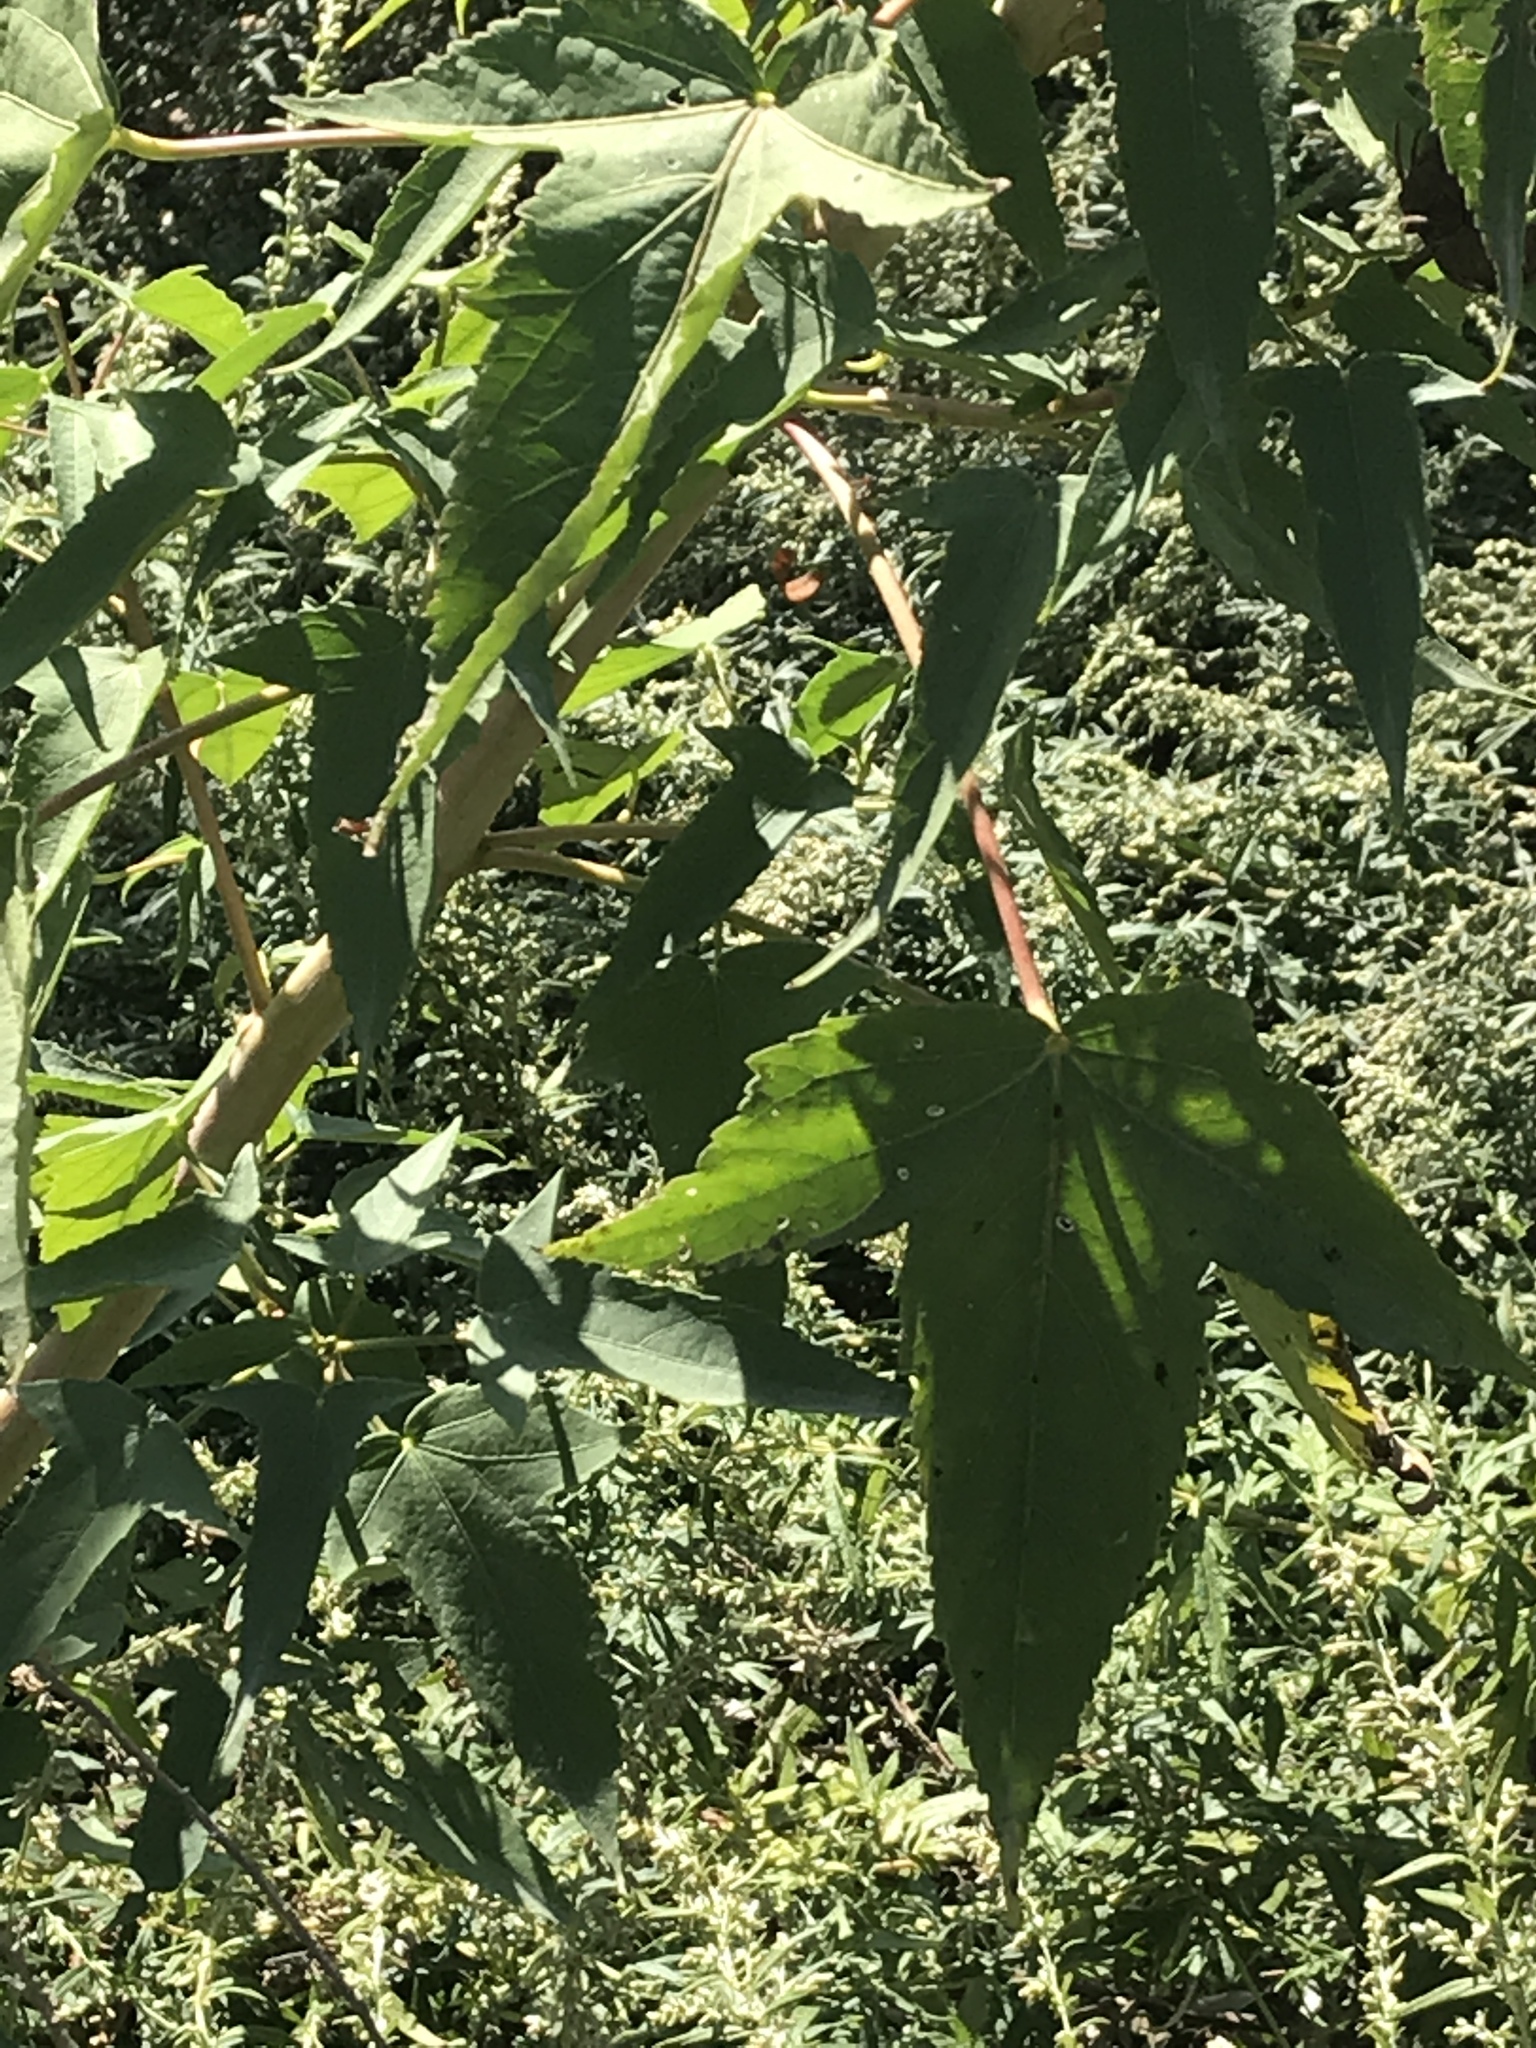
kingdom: Plantae
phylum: Tracheophyta
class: Magnoliopsida
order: Malvales
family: Malvaceae
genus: Hibiscus
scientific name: Hibiscus laevis
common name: Scarlet rose-mallow
